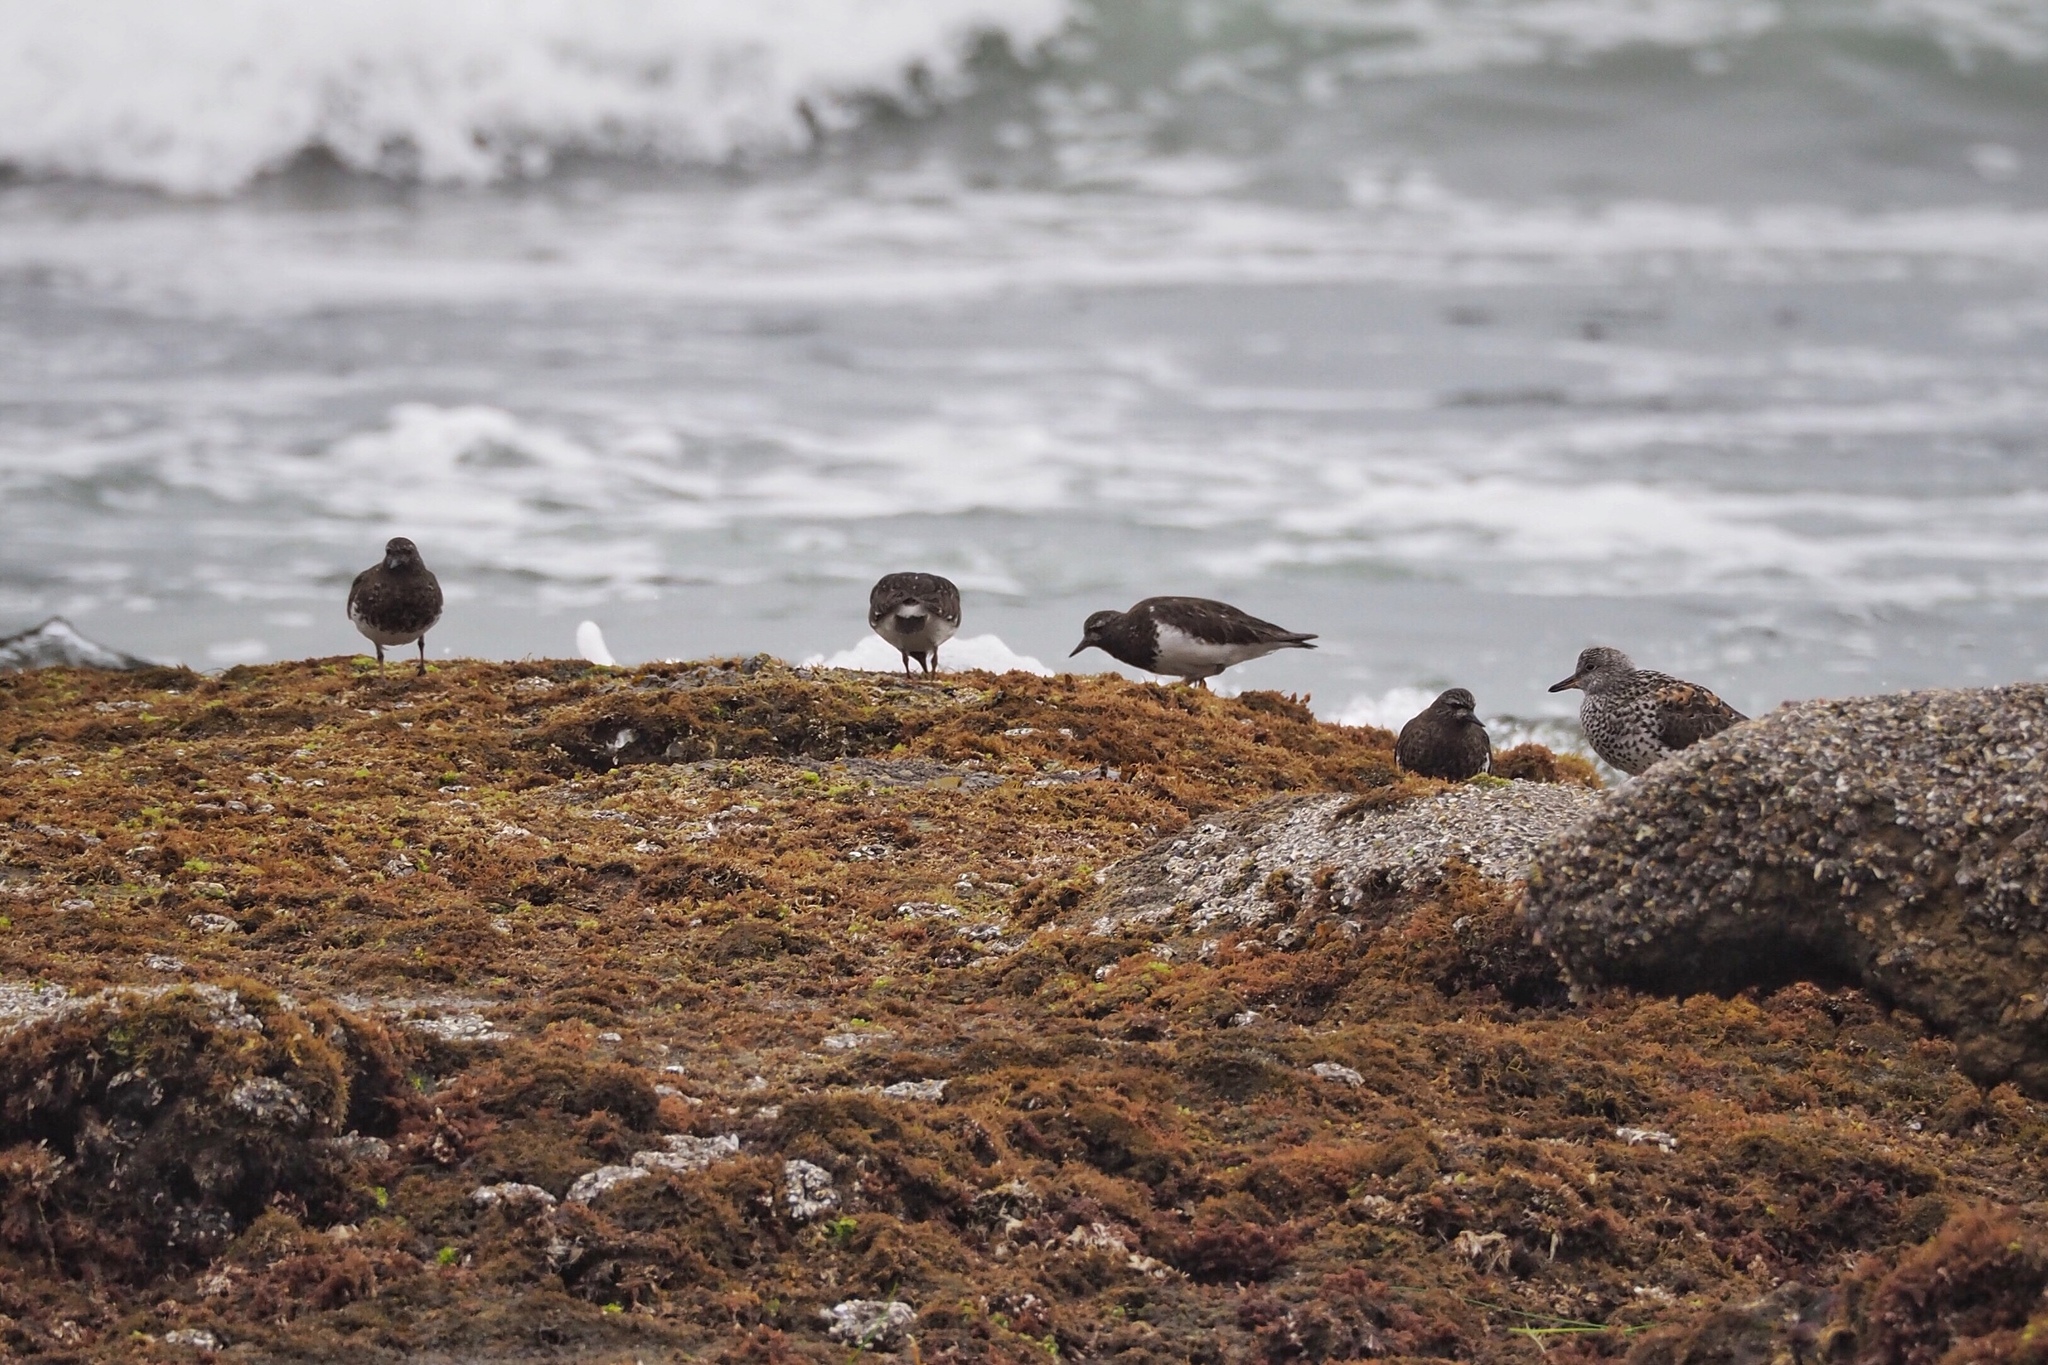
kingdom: Animalia
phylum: Chordata
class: Aves
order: Charadriiformes
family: Scolopacidae
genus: Arenaria
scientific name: Arenaria melanocephala
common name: Black turnstone
